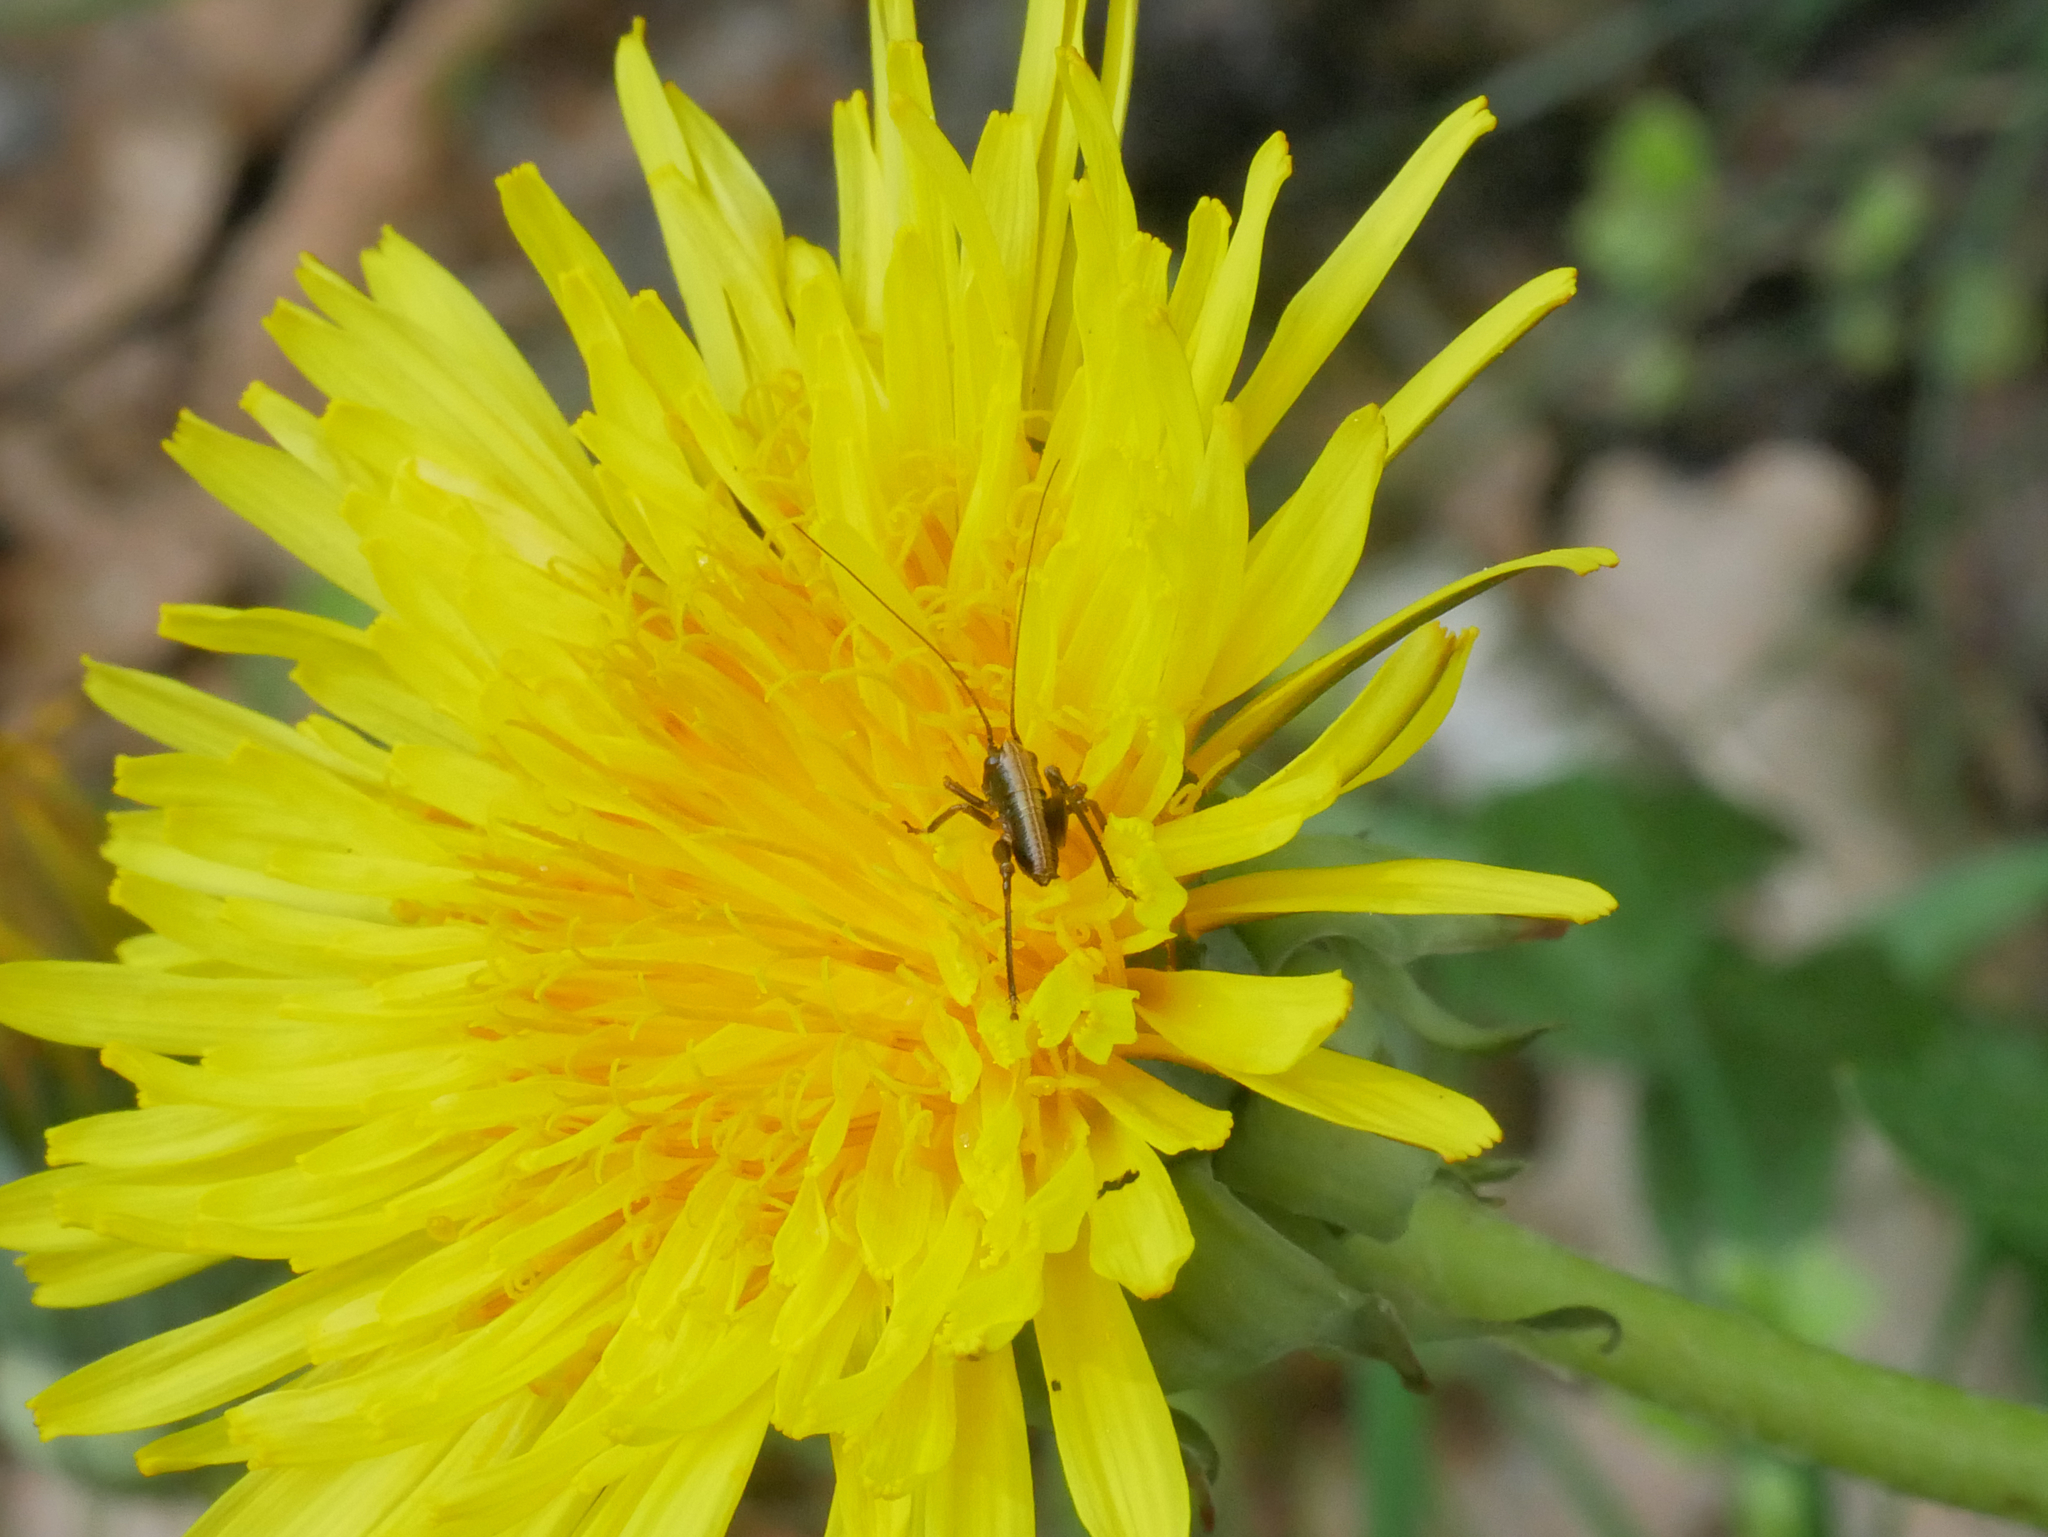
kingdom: Animalia
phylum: Arthropoda
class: Insecta
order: Orthoptera
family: Tettigoniidae
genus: Pholidoptera
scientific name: Pholidoptera griseoaptera
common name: Dark bush-cricket
